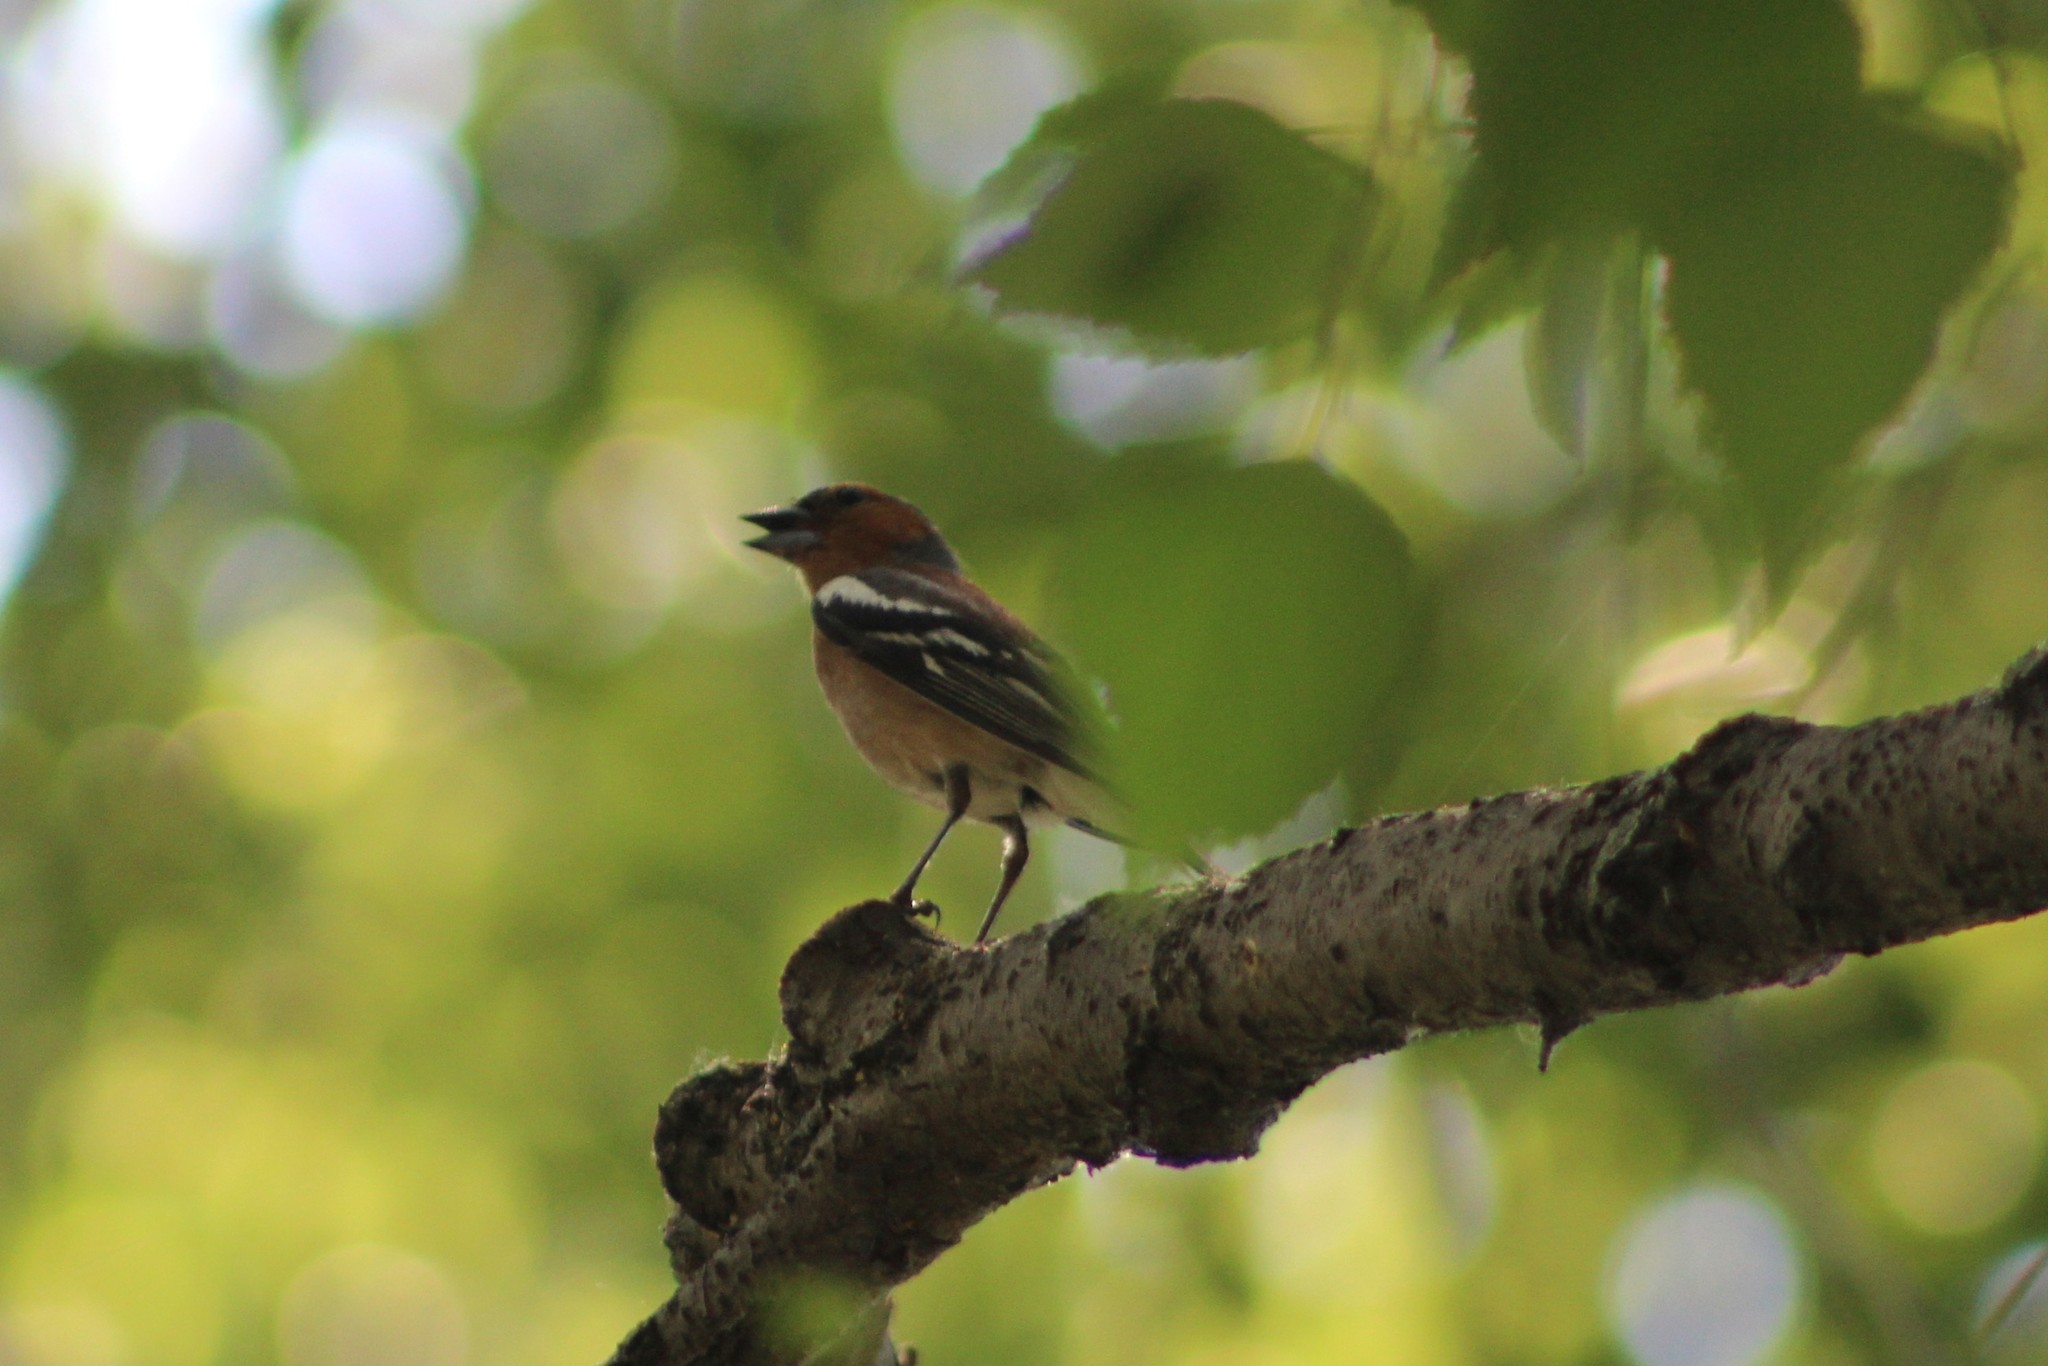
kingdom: Animalia
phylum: Chordata
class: Aves
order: Passeriformes
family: Fringillidae
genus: Fringilla
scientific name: Fringilla coelebs
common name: Common chaffinch
